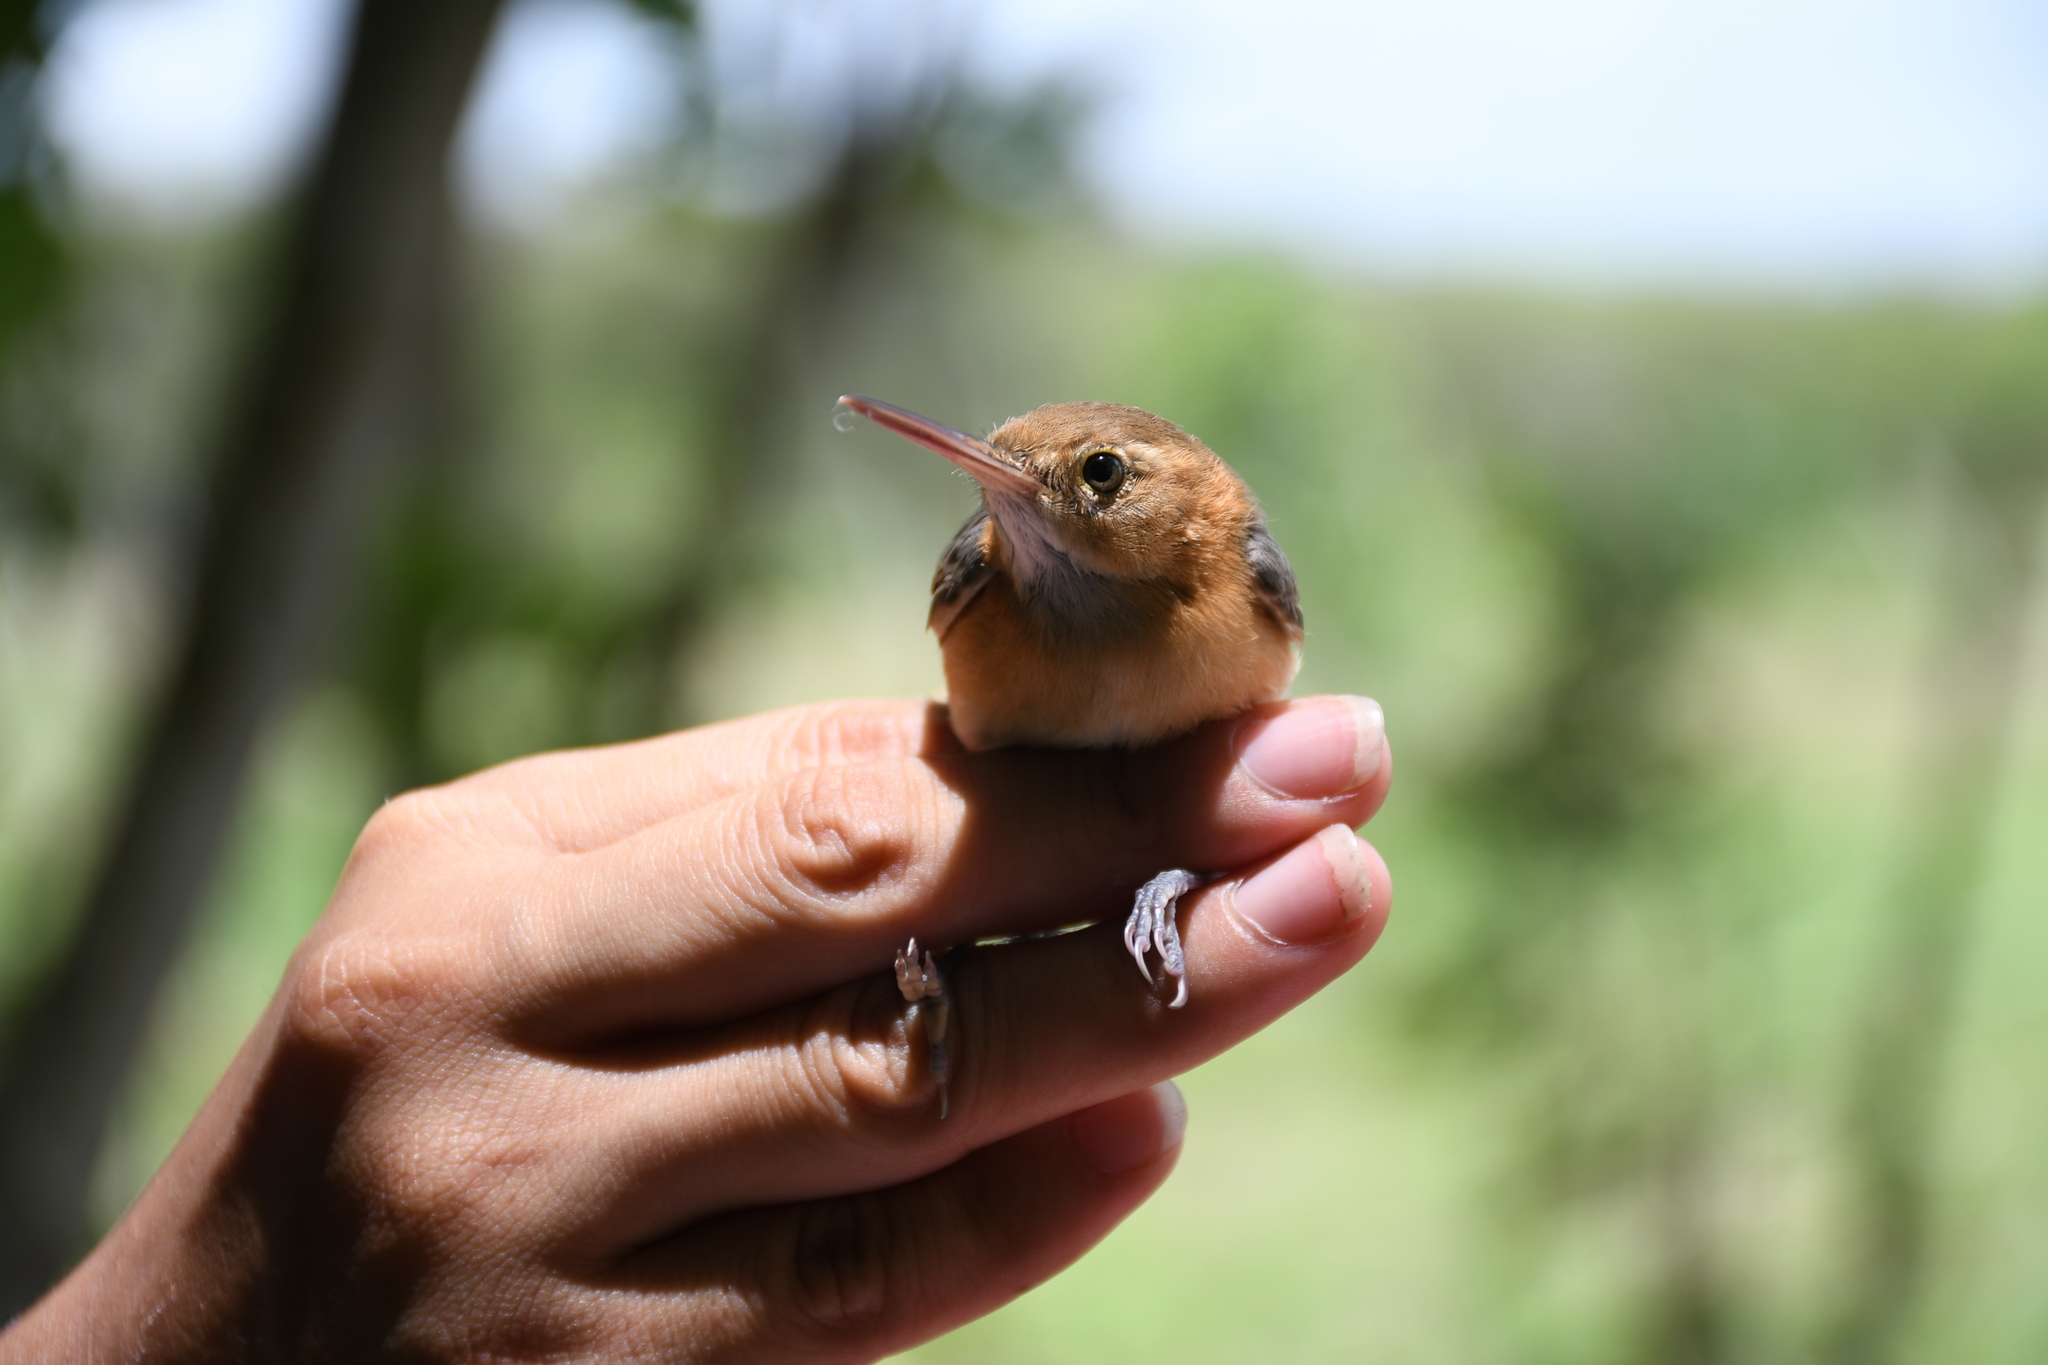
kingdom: Animalia
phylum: Chordata
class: Aves
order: Passeriformes
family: Polioptilidae
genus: Ramphocaenus
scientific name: Ramphocaenus melanurus
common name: Long-billed gnatwren
